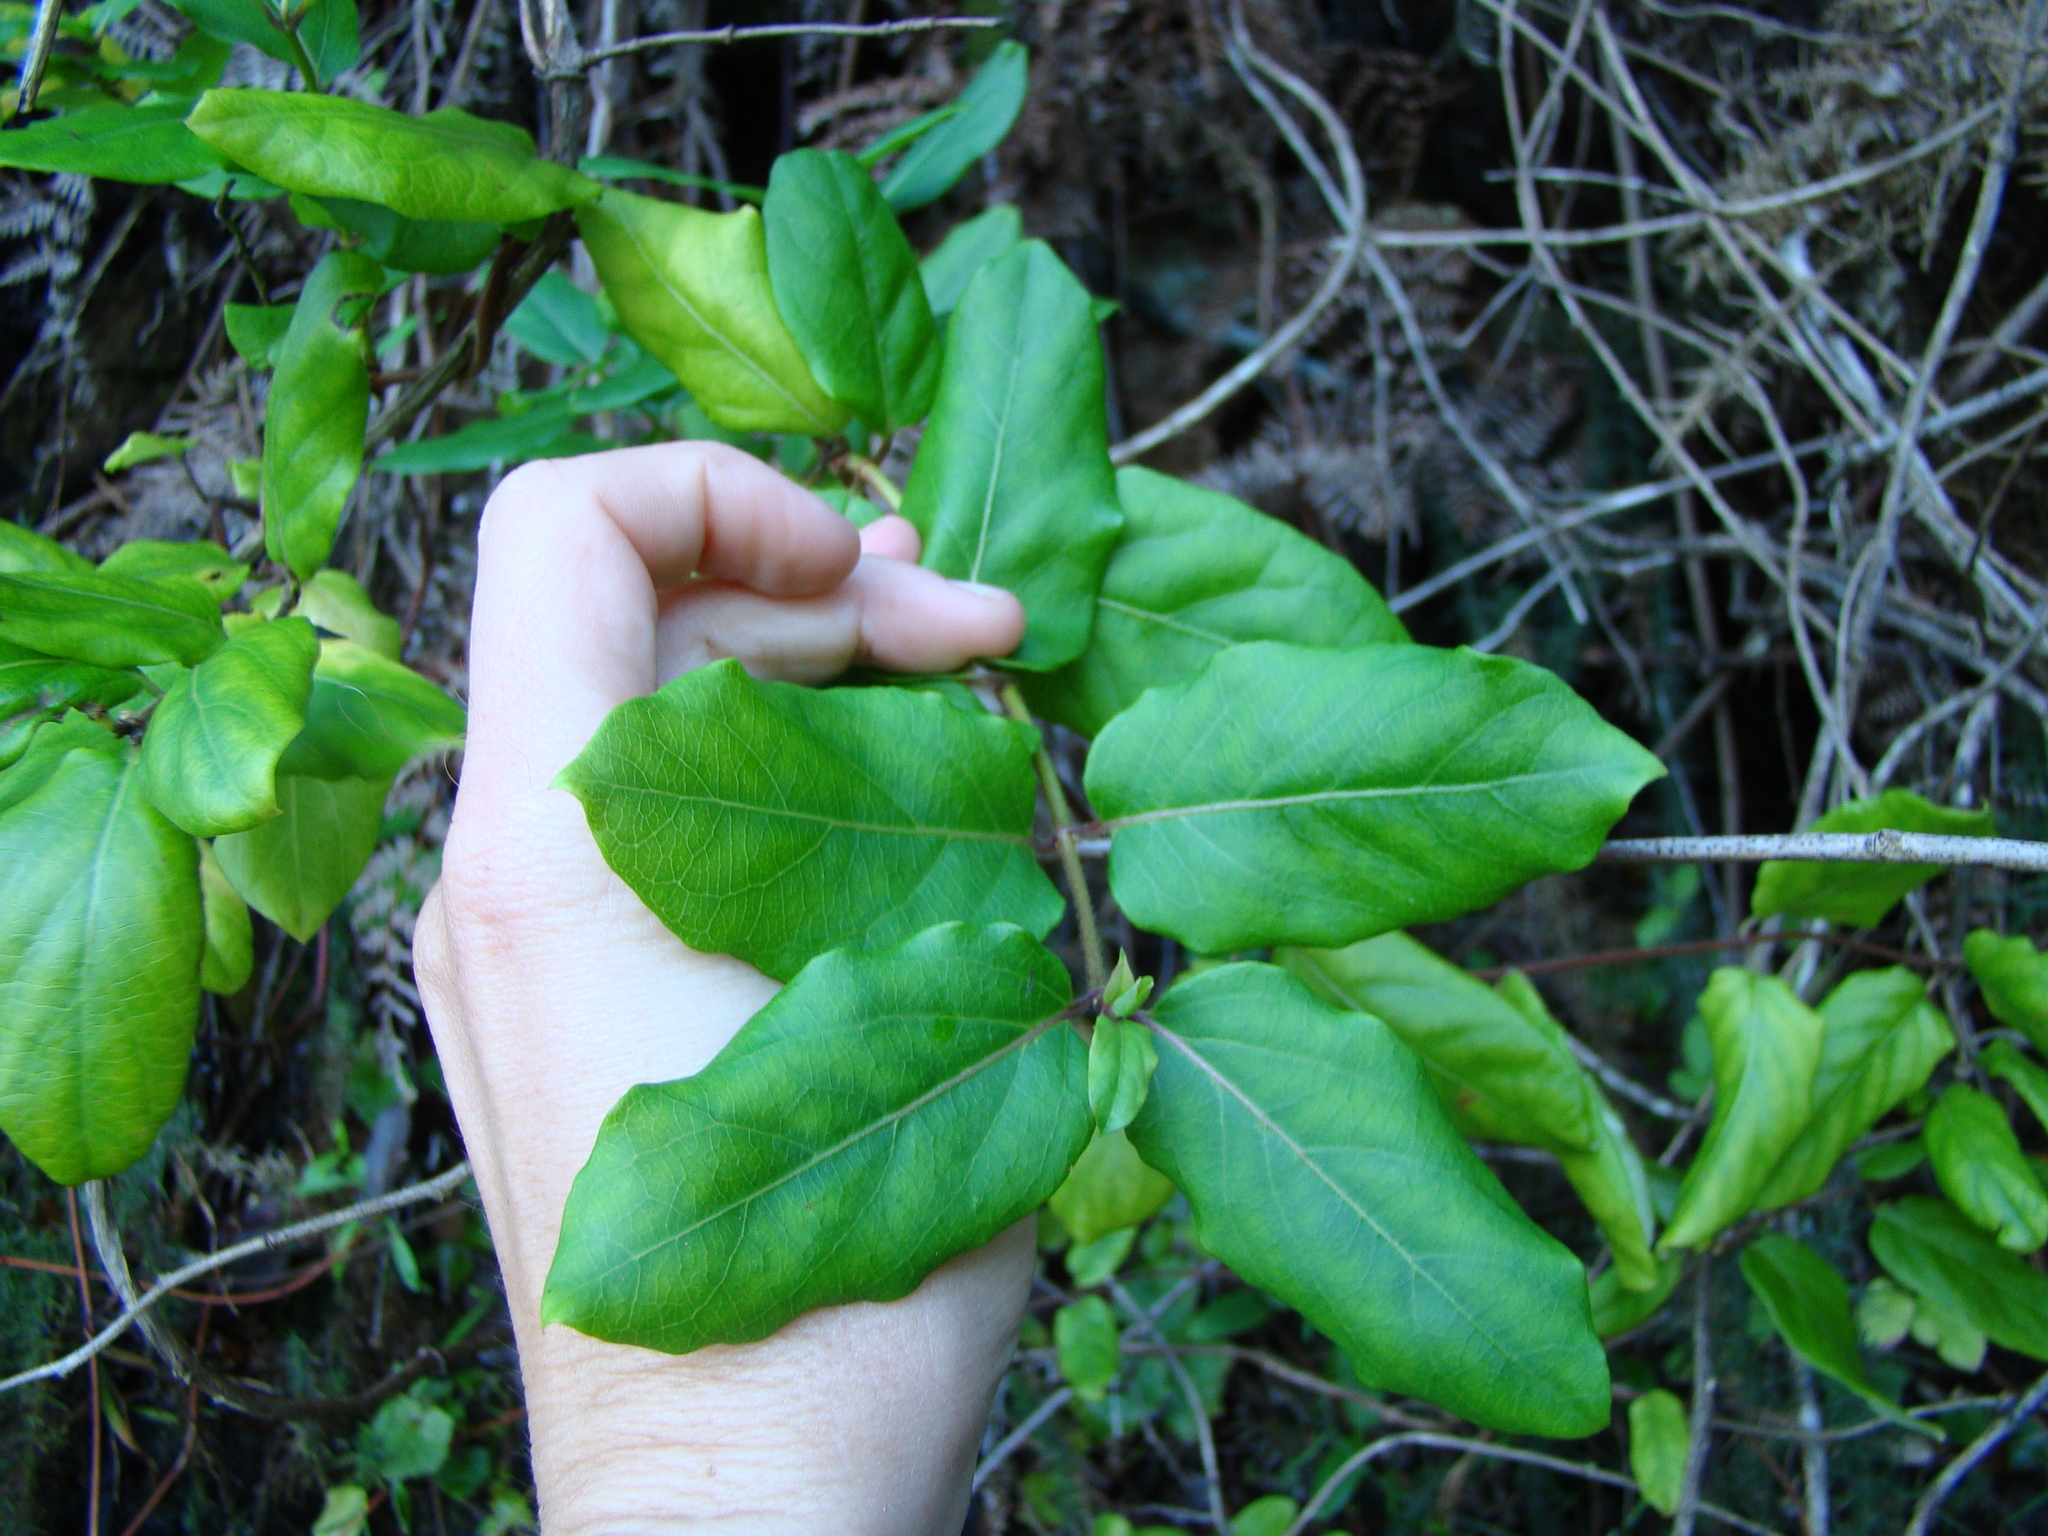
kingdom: Plantae
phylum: Tracheophyta
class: Magnoliopsida
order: Dipsacales
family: Caprifoliaceae
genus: Lonicera
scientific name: Lonicera japonica
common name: Japanese honeysuckle
